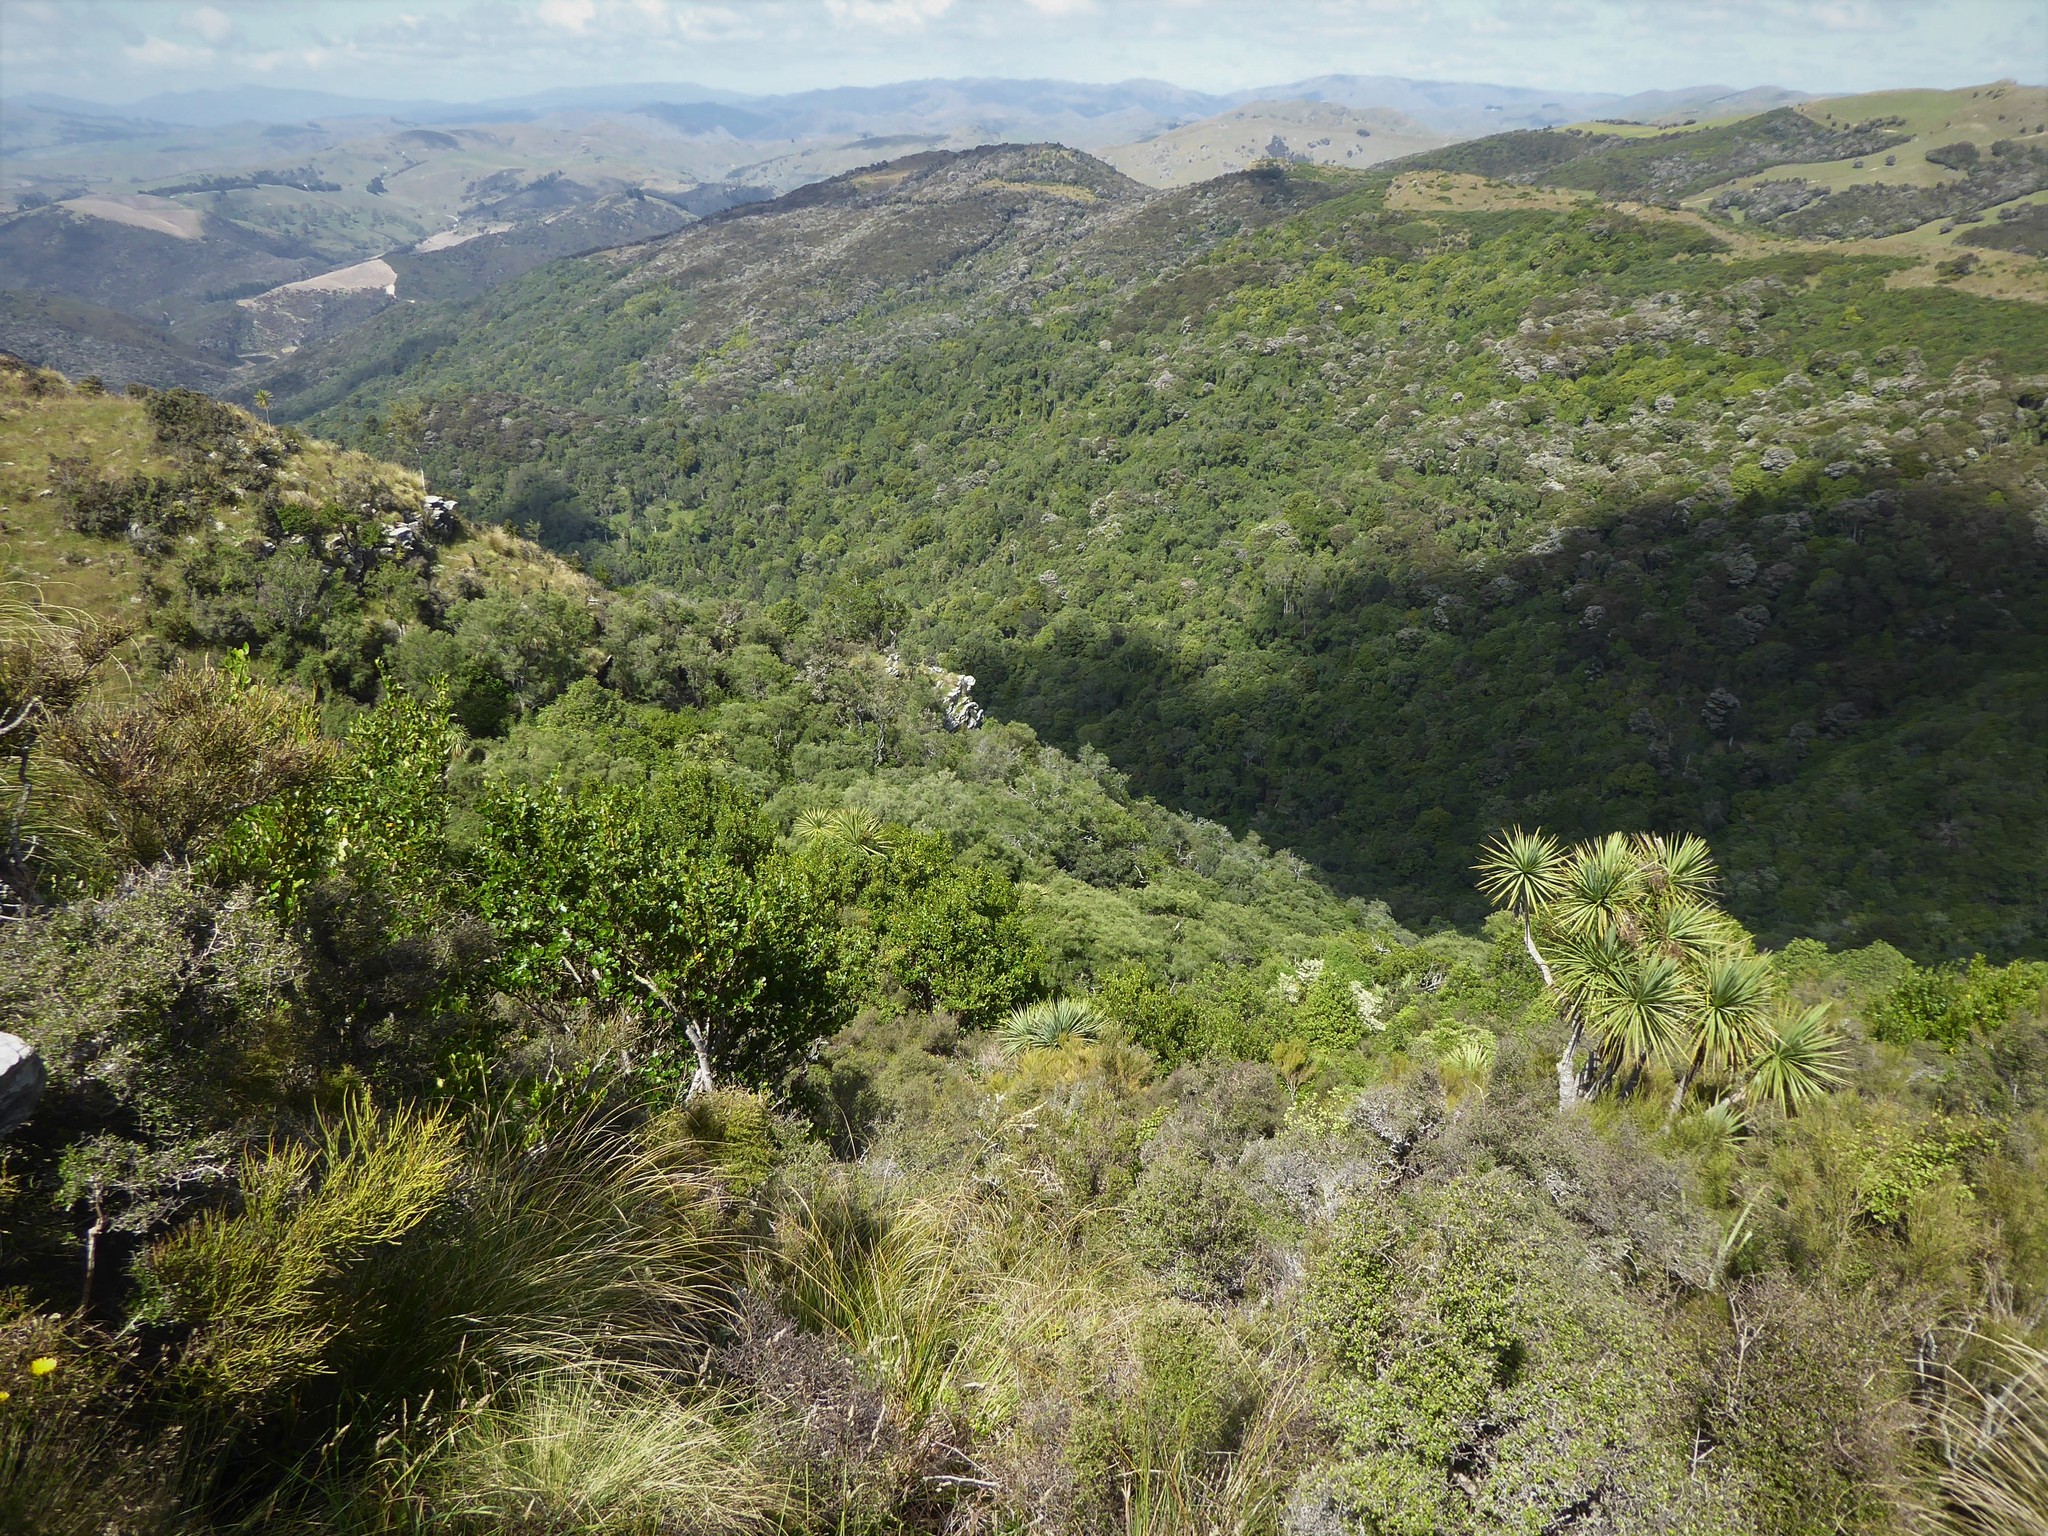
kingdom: Animalia
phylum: Arthropoda
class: Insecta
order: Lepidoptera
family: Nymphalidae
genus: Argyrophenga
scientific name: Argyrophenga antipodum
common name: Common tussock butterfly
